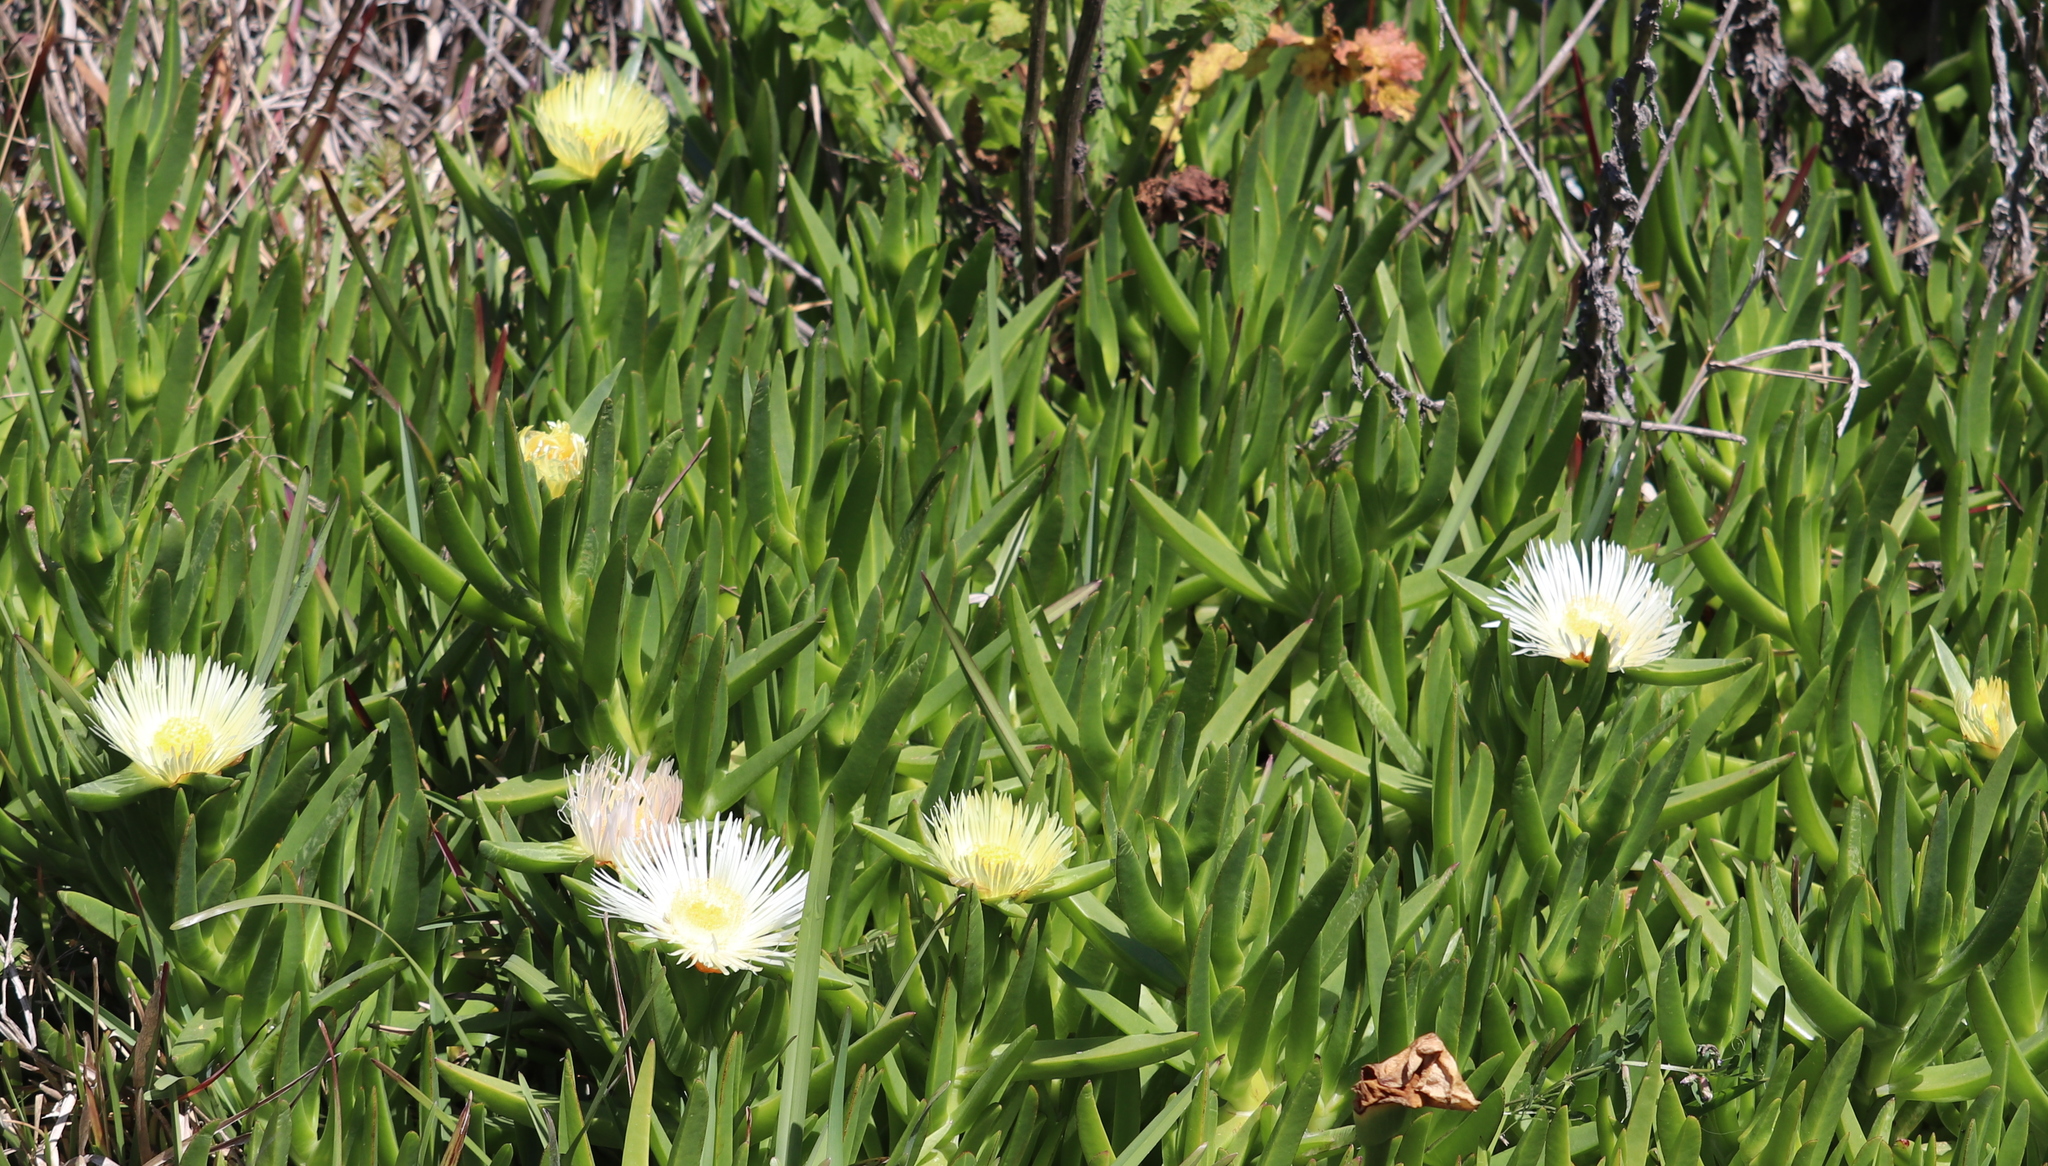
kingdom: Plantae
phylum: Tracheophyta
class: Magnoliopsida
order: Caryophyllales
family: Aizoaceae
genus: Carpobrotus
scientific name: Carpobrotus edulis
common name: Hottentot-fig
